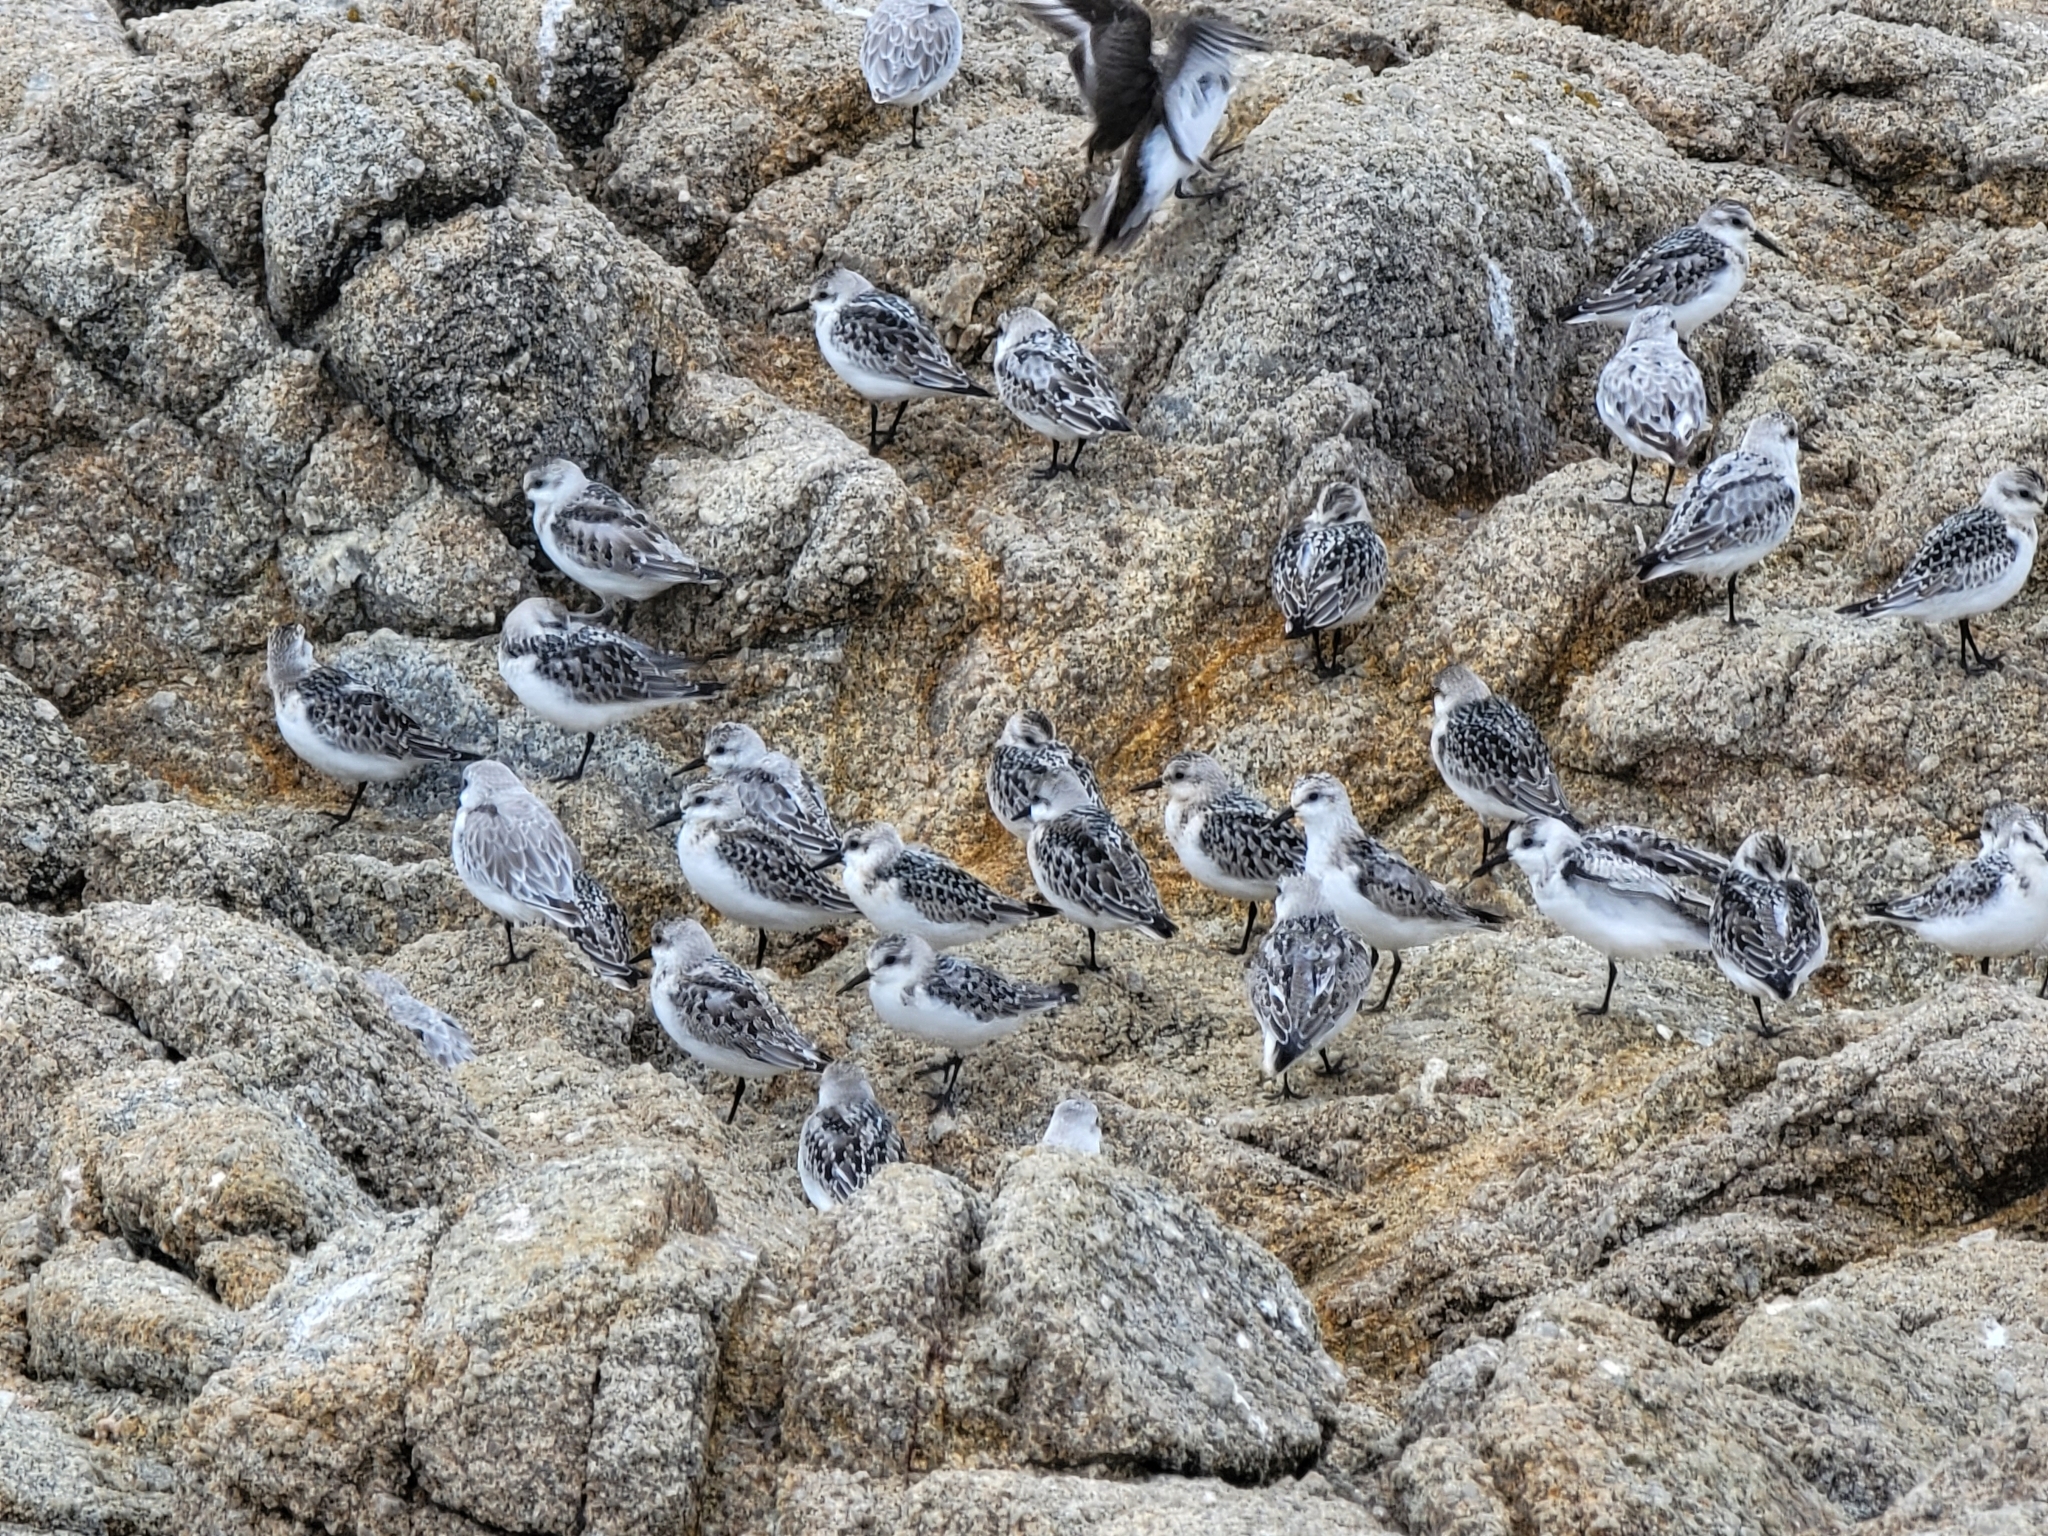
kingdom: Animalia
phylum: Chordata
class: Aves
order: Charadriiformes
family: Scolopacidae
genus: Calidris
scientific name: Calidris alba
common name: Sanderling
